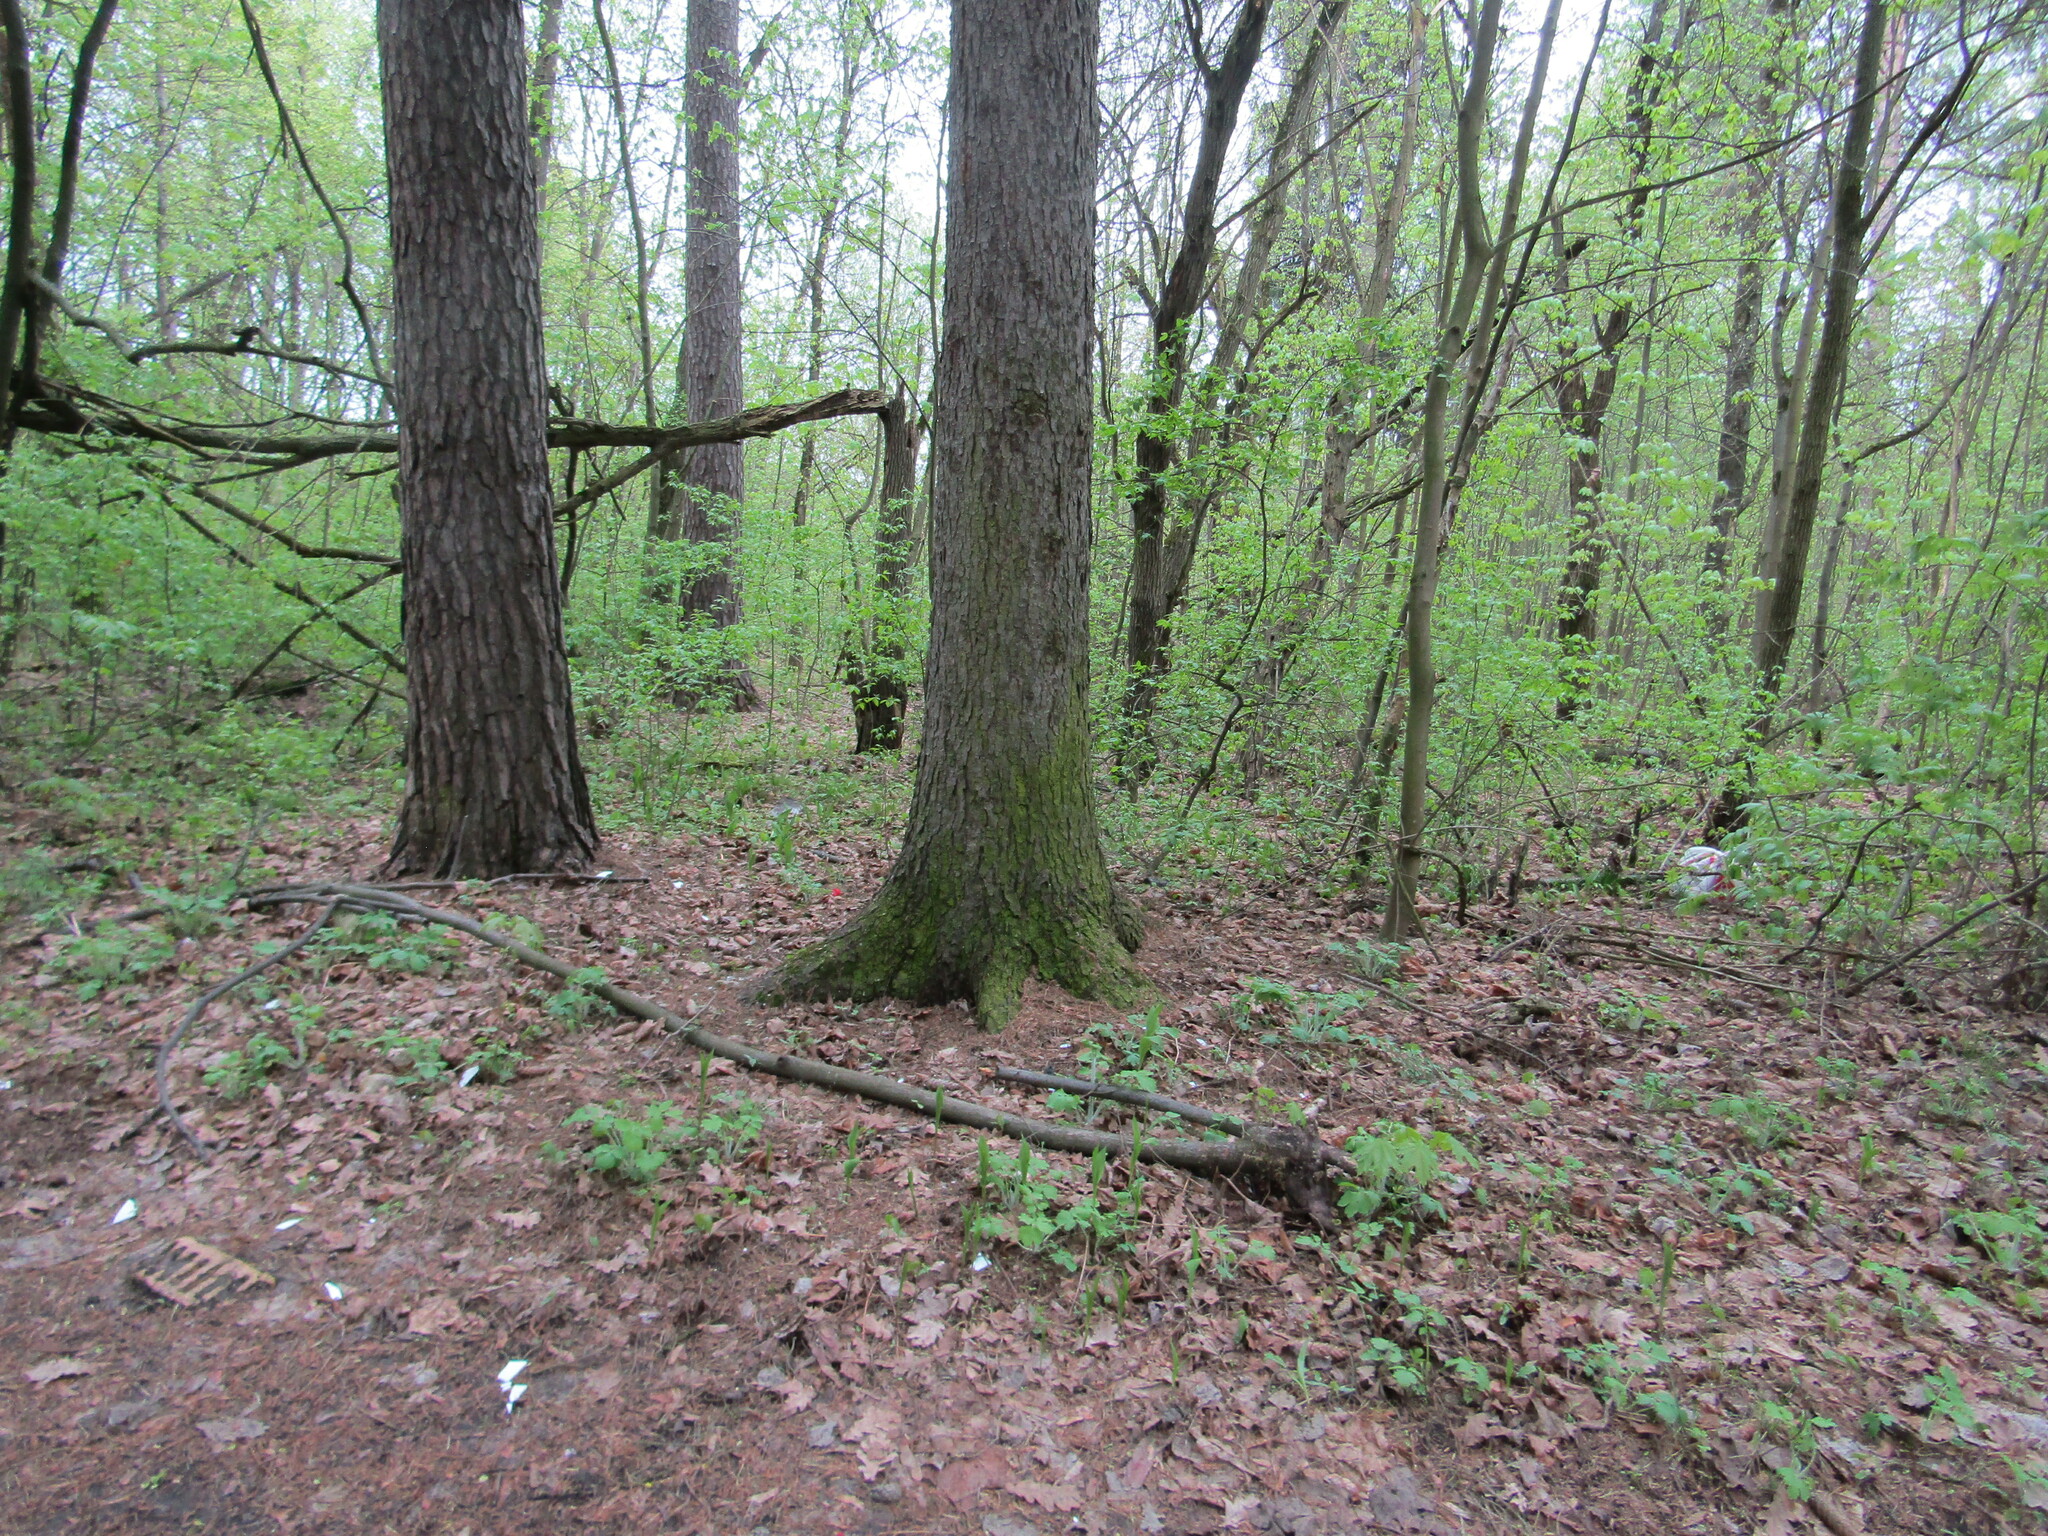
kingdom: Plantae
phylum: Tracheophyta
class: Pinopsida
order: Pinales
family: Pinaceae
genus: Picea
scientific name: Picea abies
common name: Norway spruce
